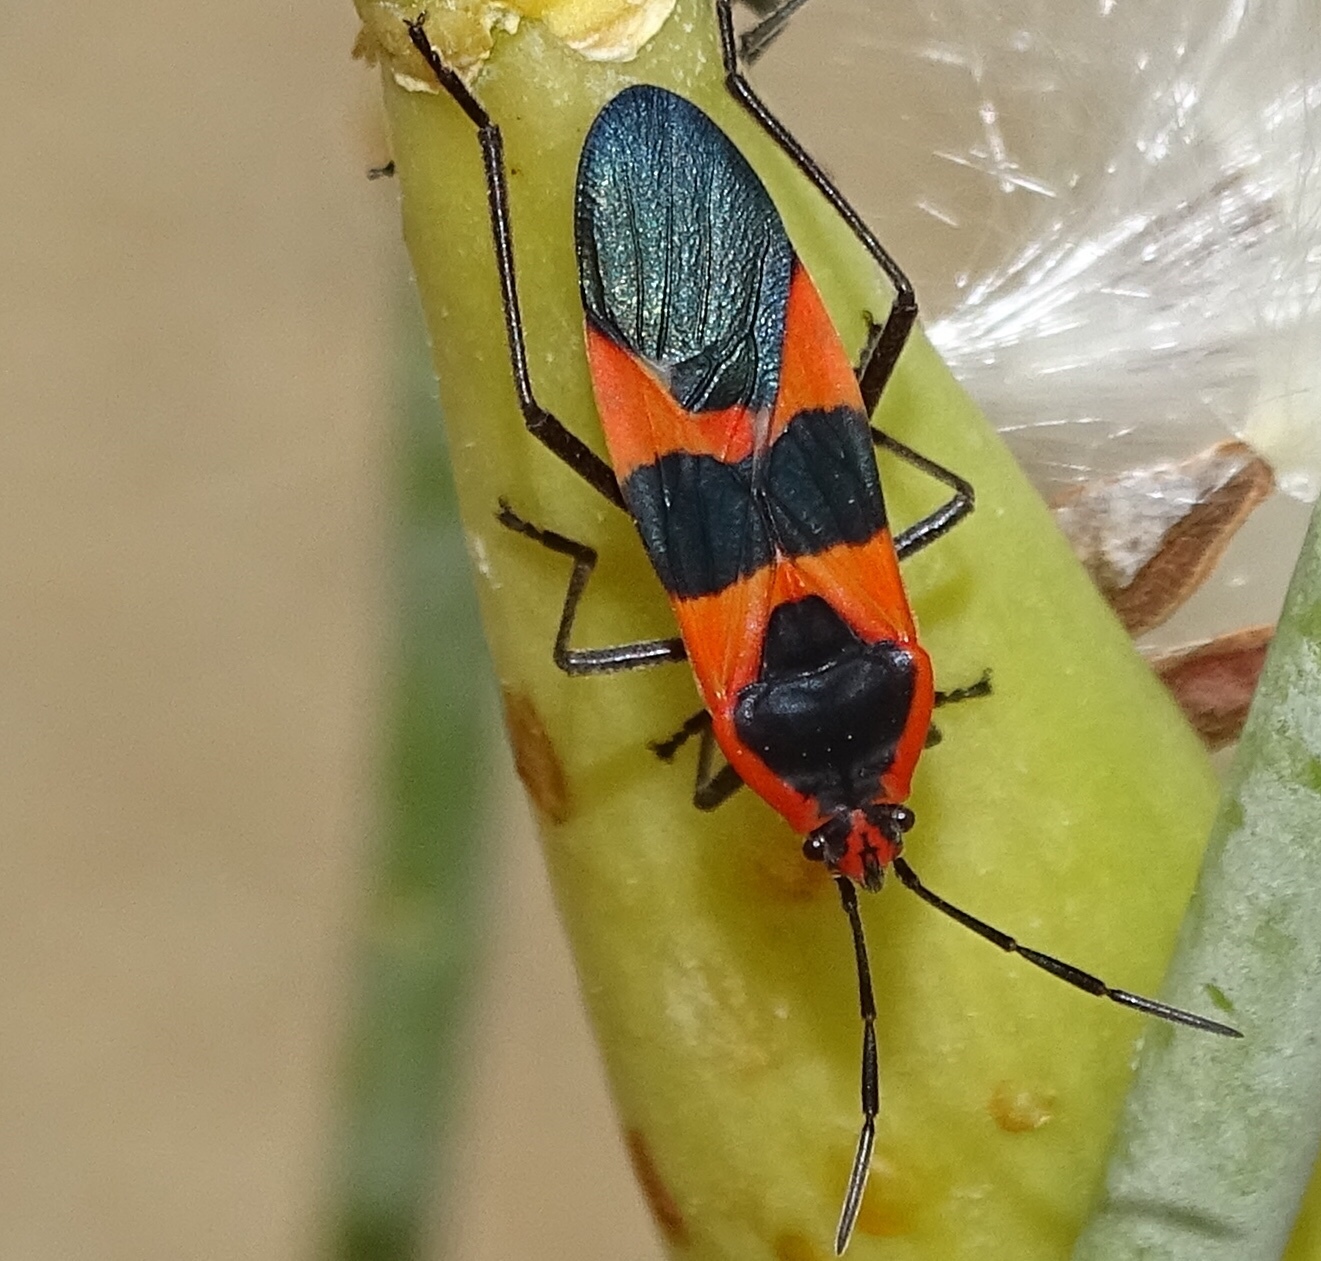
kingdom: Animalia
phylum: Arthropoda
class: Insecta
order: Hemiptera
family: Lygaeidae
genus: Oncopeltus
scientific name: Oncopeltus fasciatus
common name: Large milkweed bug
